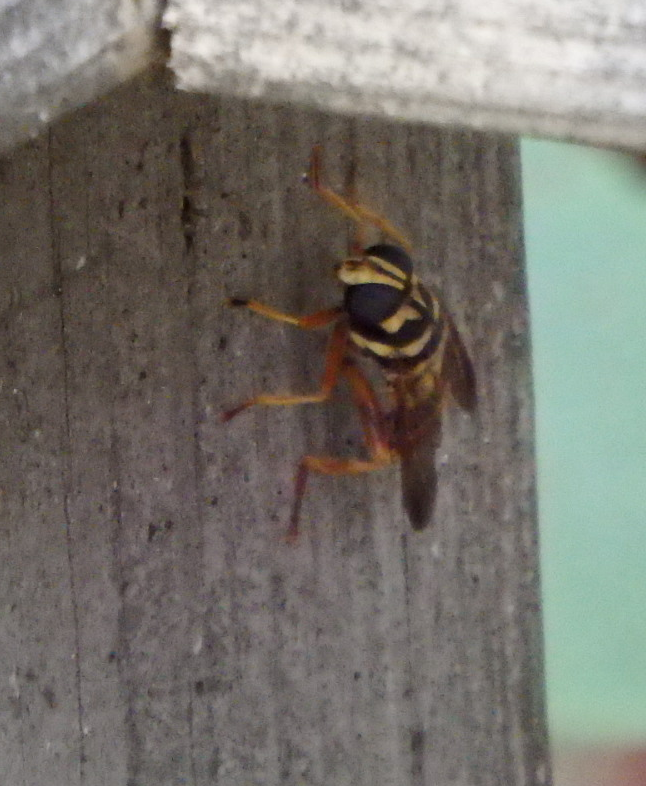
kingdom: Animalia
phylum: Arthropoda
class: Insecta
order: Diptera
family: Syrphidae
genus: Milesia
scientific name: Milesia virginiensis
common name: Virginia giant
